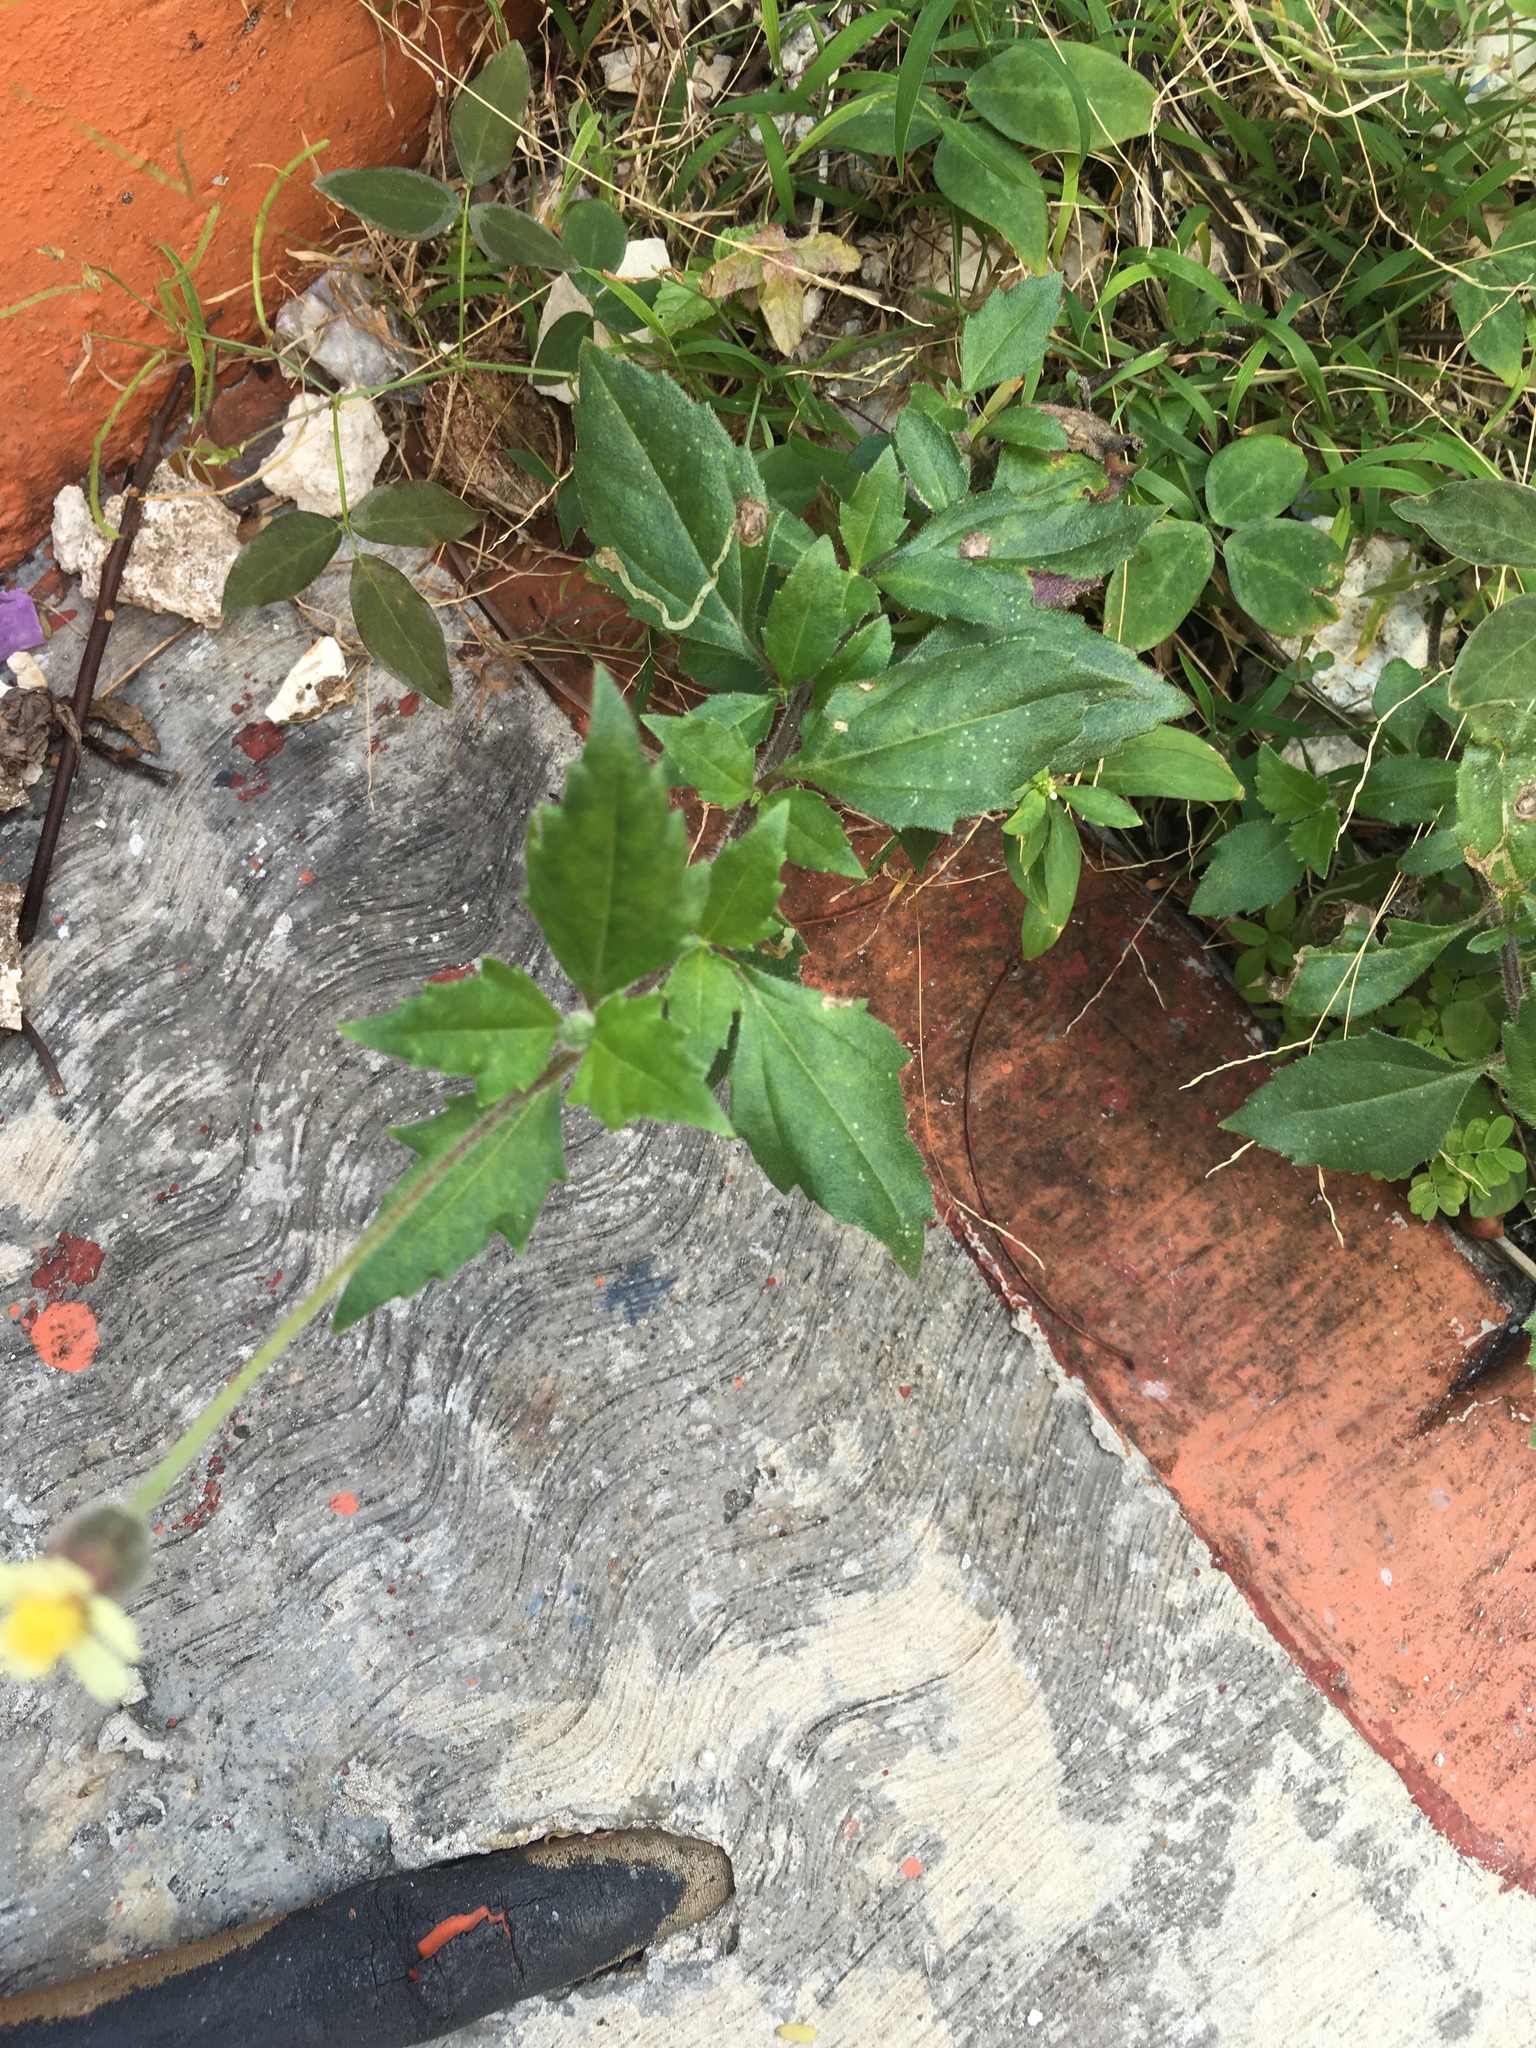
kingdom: Plantae
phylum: Tracheophyta
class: Magnoliopsida
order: Asterales
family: Asteraceae
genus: Tridax
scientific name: Tridax procumbens
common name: Coatbuttons
